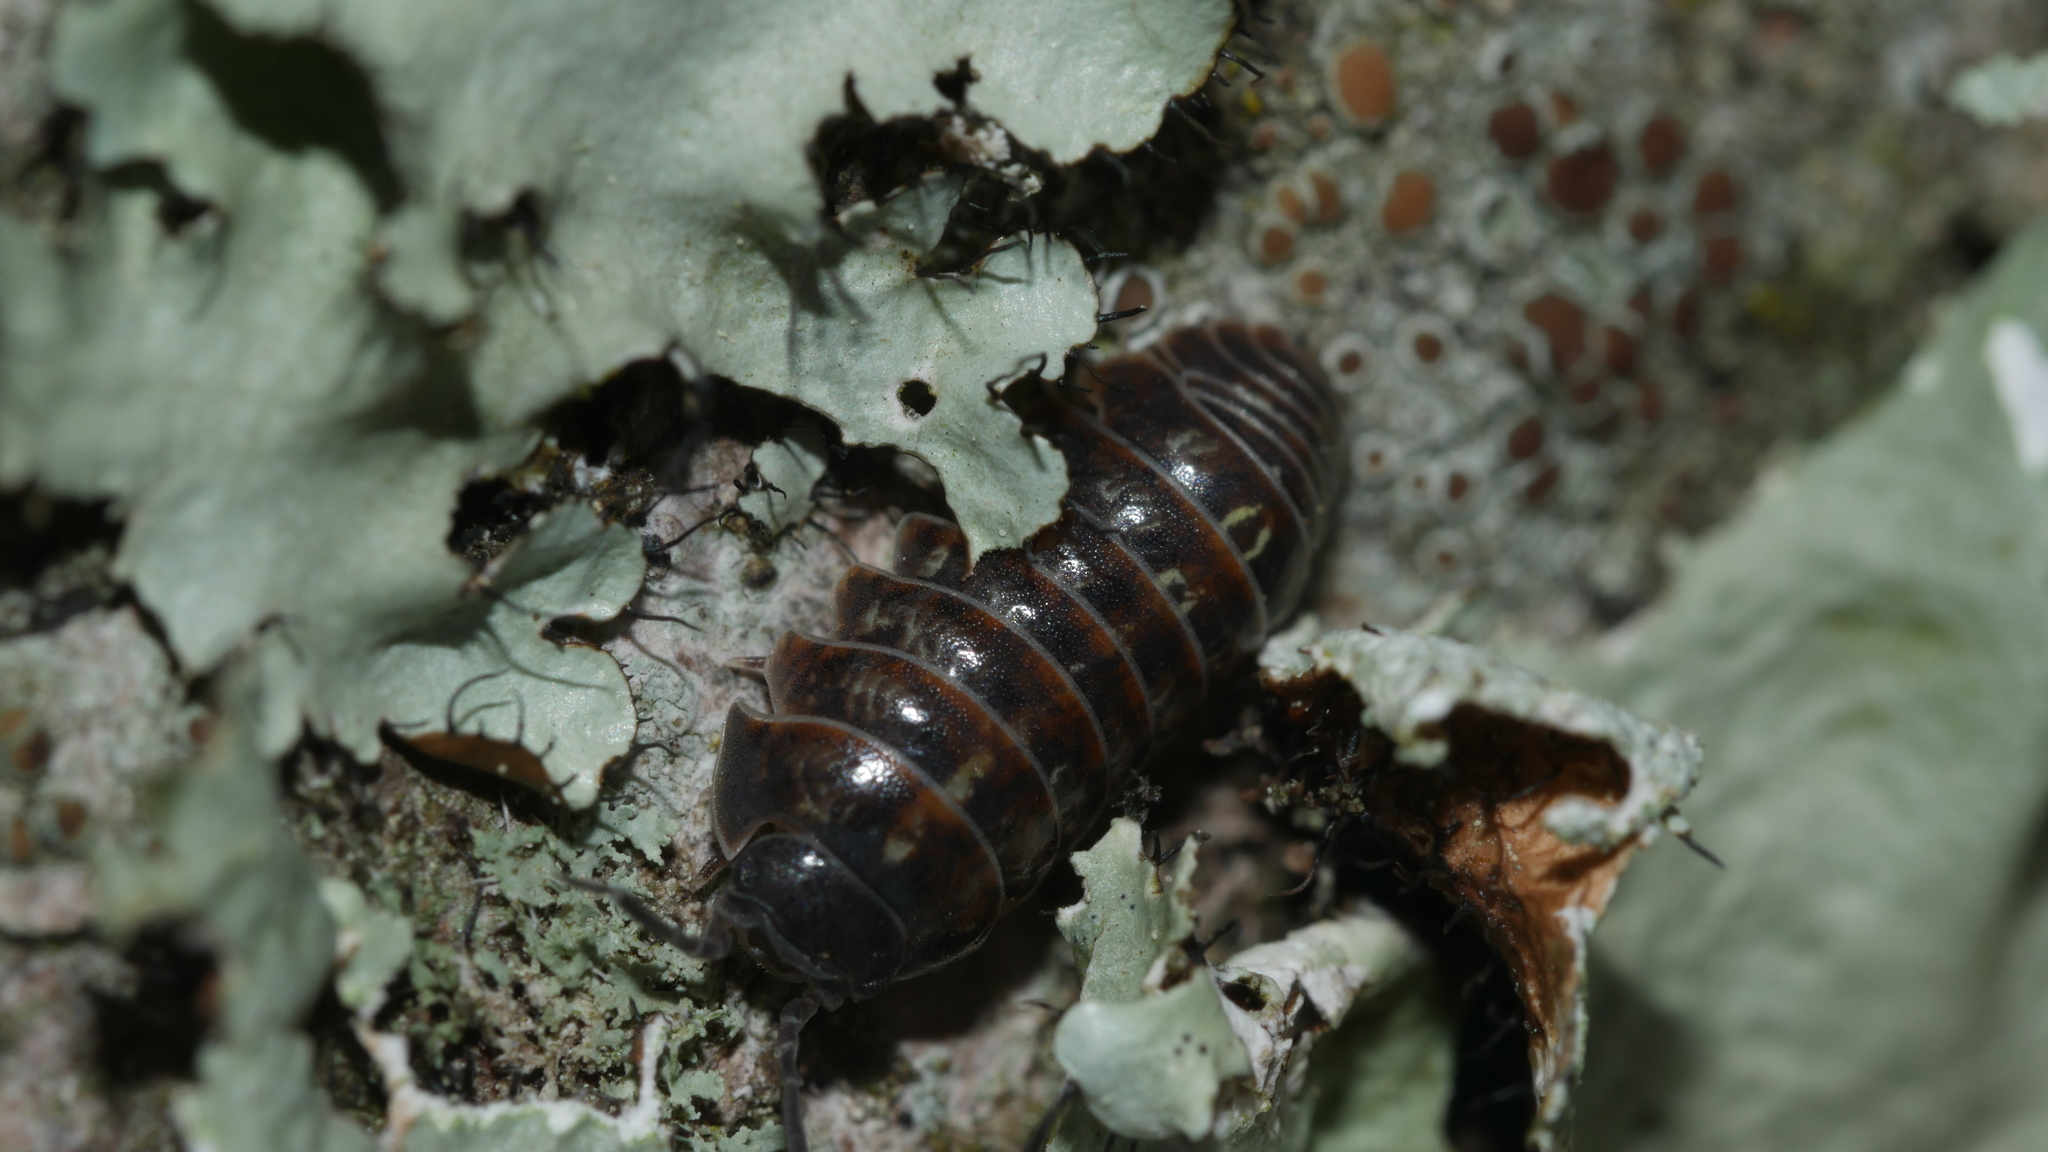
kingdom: Animalia
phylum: Arthropoda
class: Malacostraca
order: Isopoda
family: Armadillidiidae
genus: Armadillidium
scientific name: Armadillidium vulgare
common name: Common pill woodlouse
